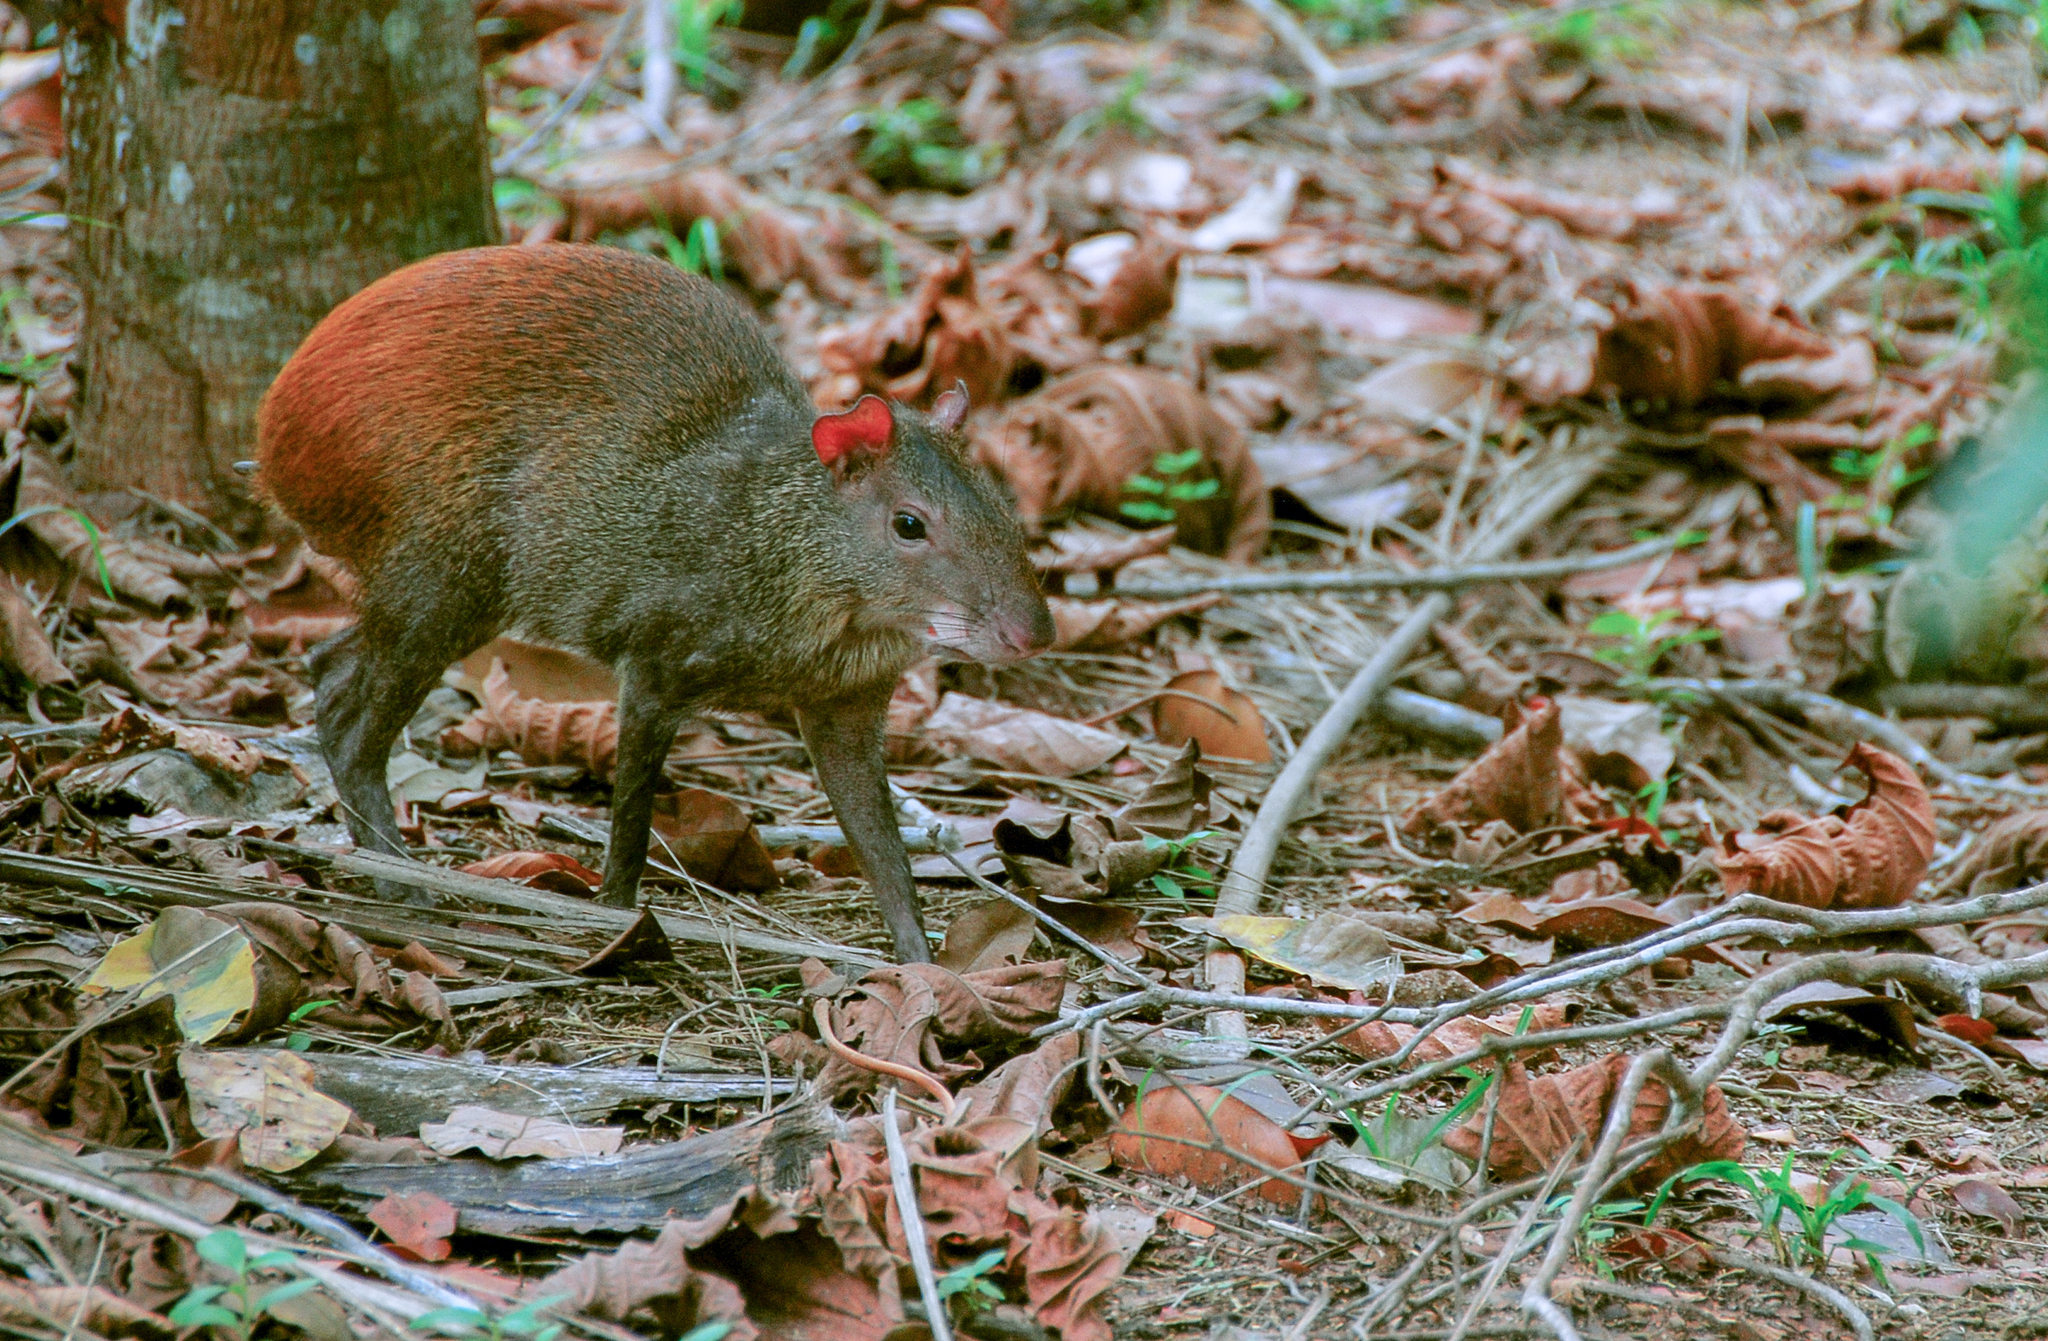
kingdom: Animalia
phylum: Chordata
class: Mammalia
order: Rodentia
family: Dasyproctidae
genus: Dasyprocta
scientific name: Dasyprocta leporina
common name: Red-rumped agouti
